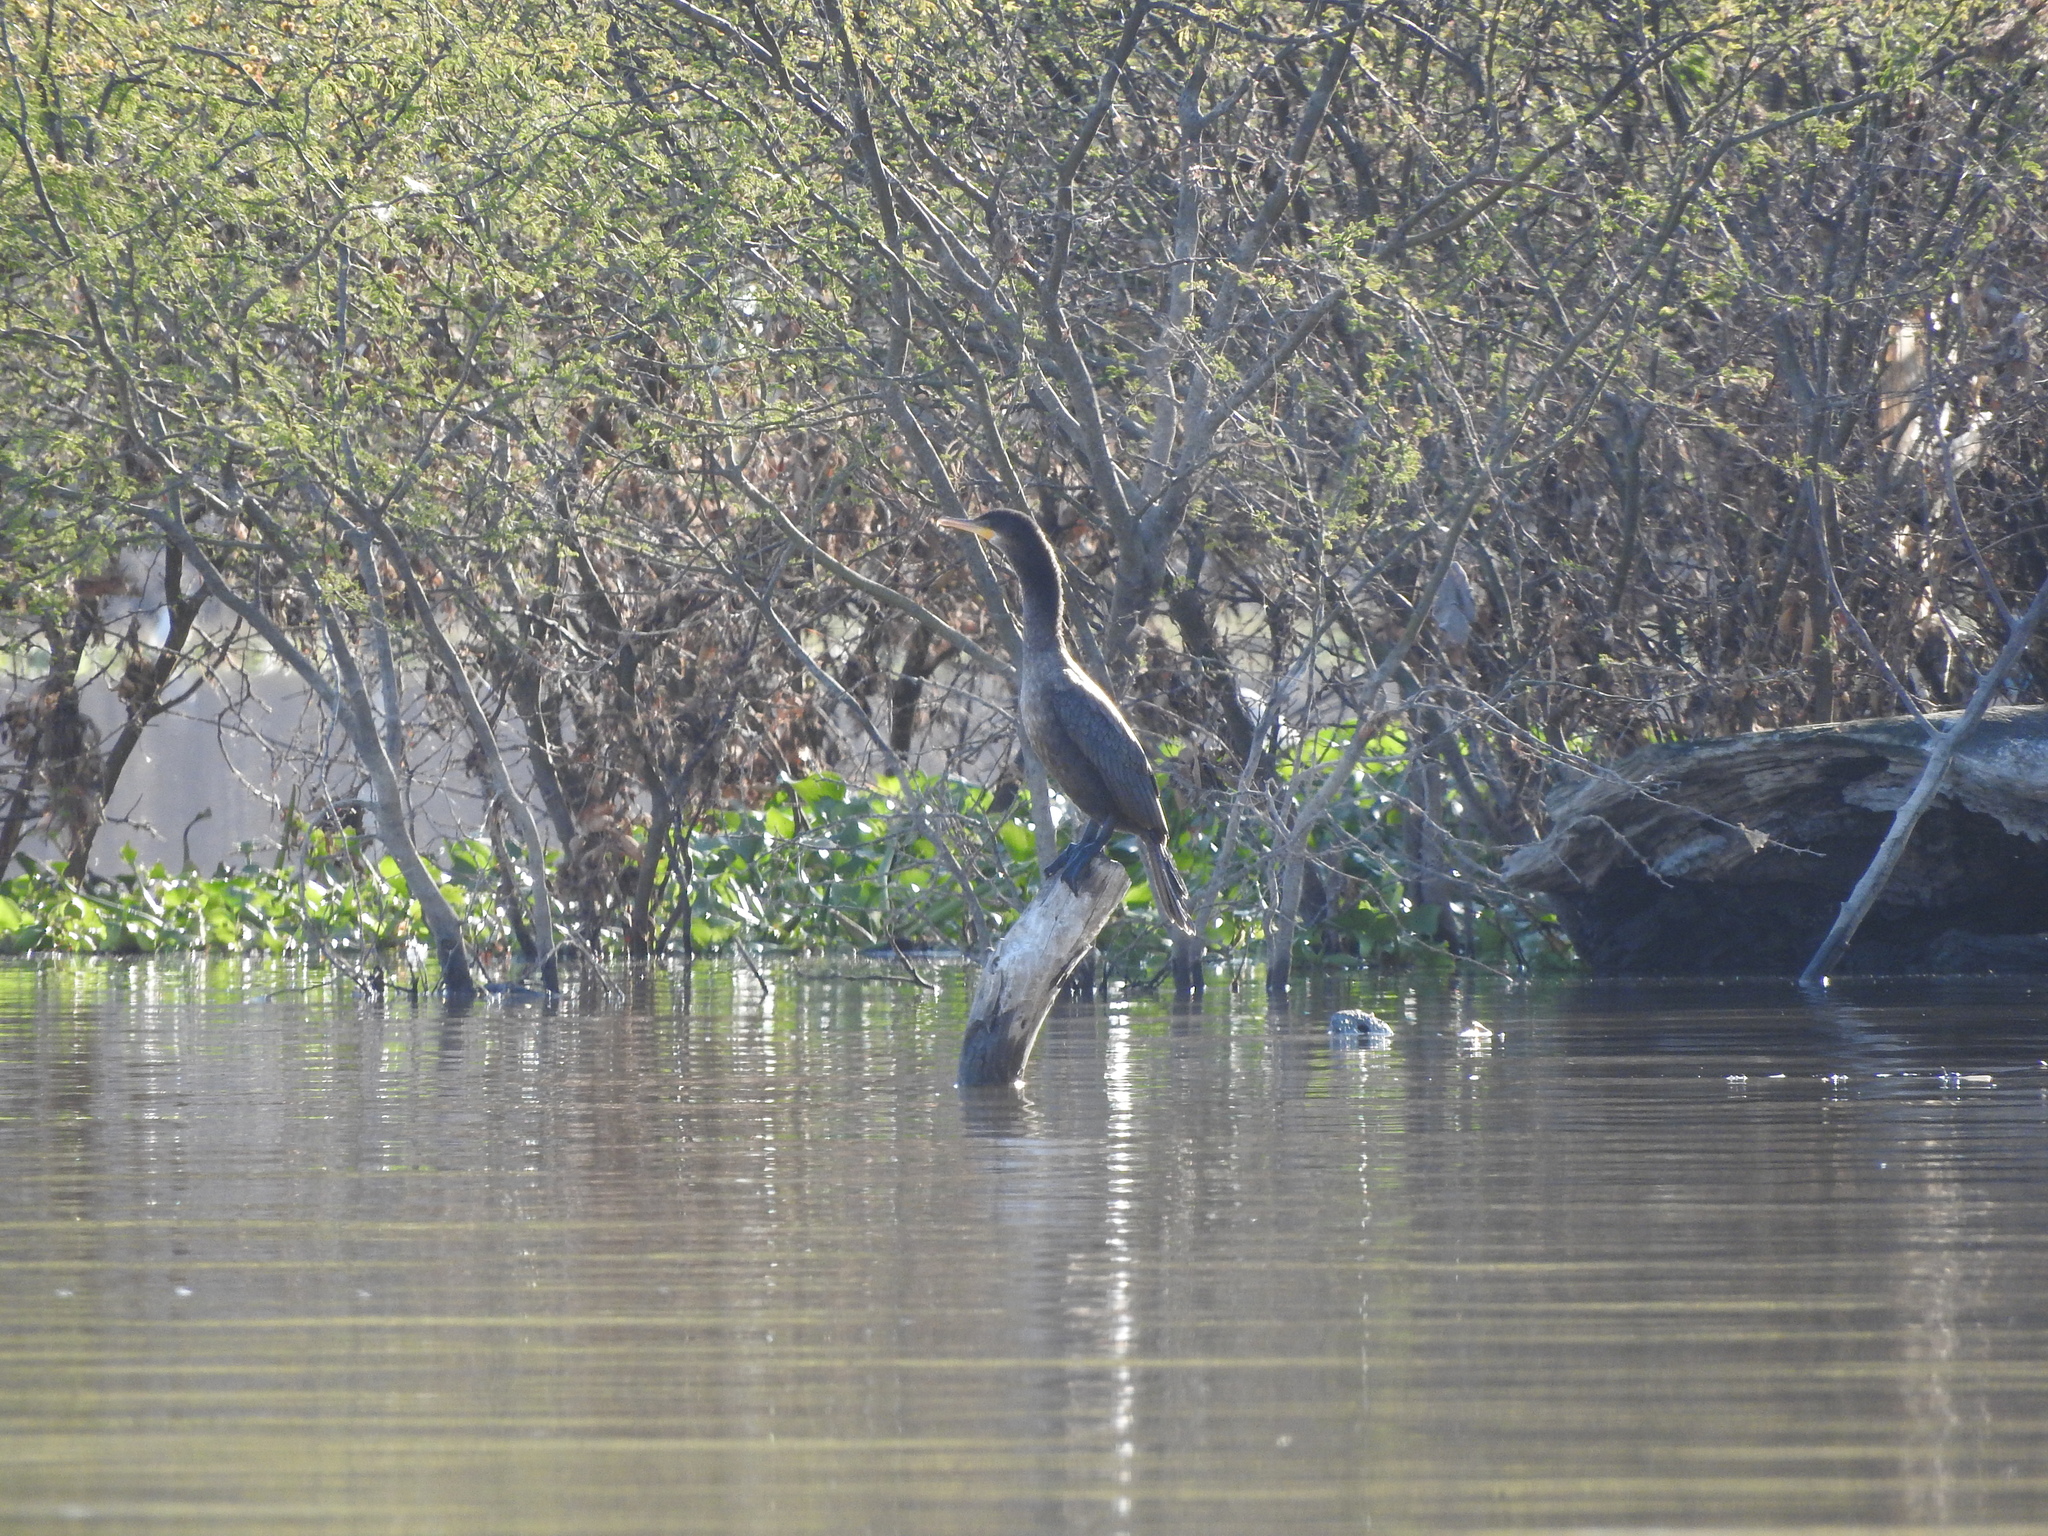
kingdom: Animalia
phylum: Chordata
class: Aves
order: Suliformes
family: Phalacrocoracidae
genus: Phalacrocorax
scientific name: Phalacrocorax brasilianus
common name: Neotropic cormorant
